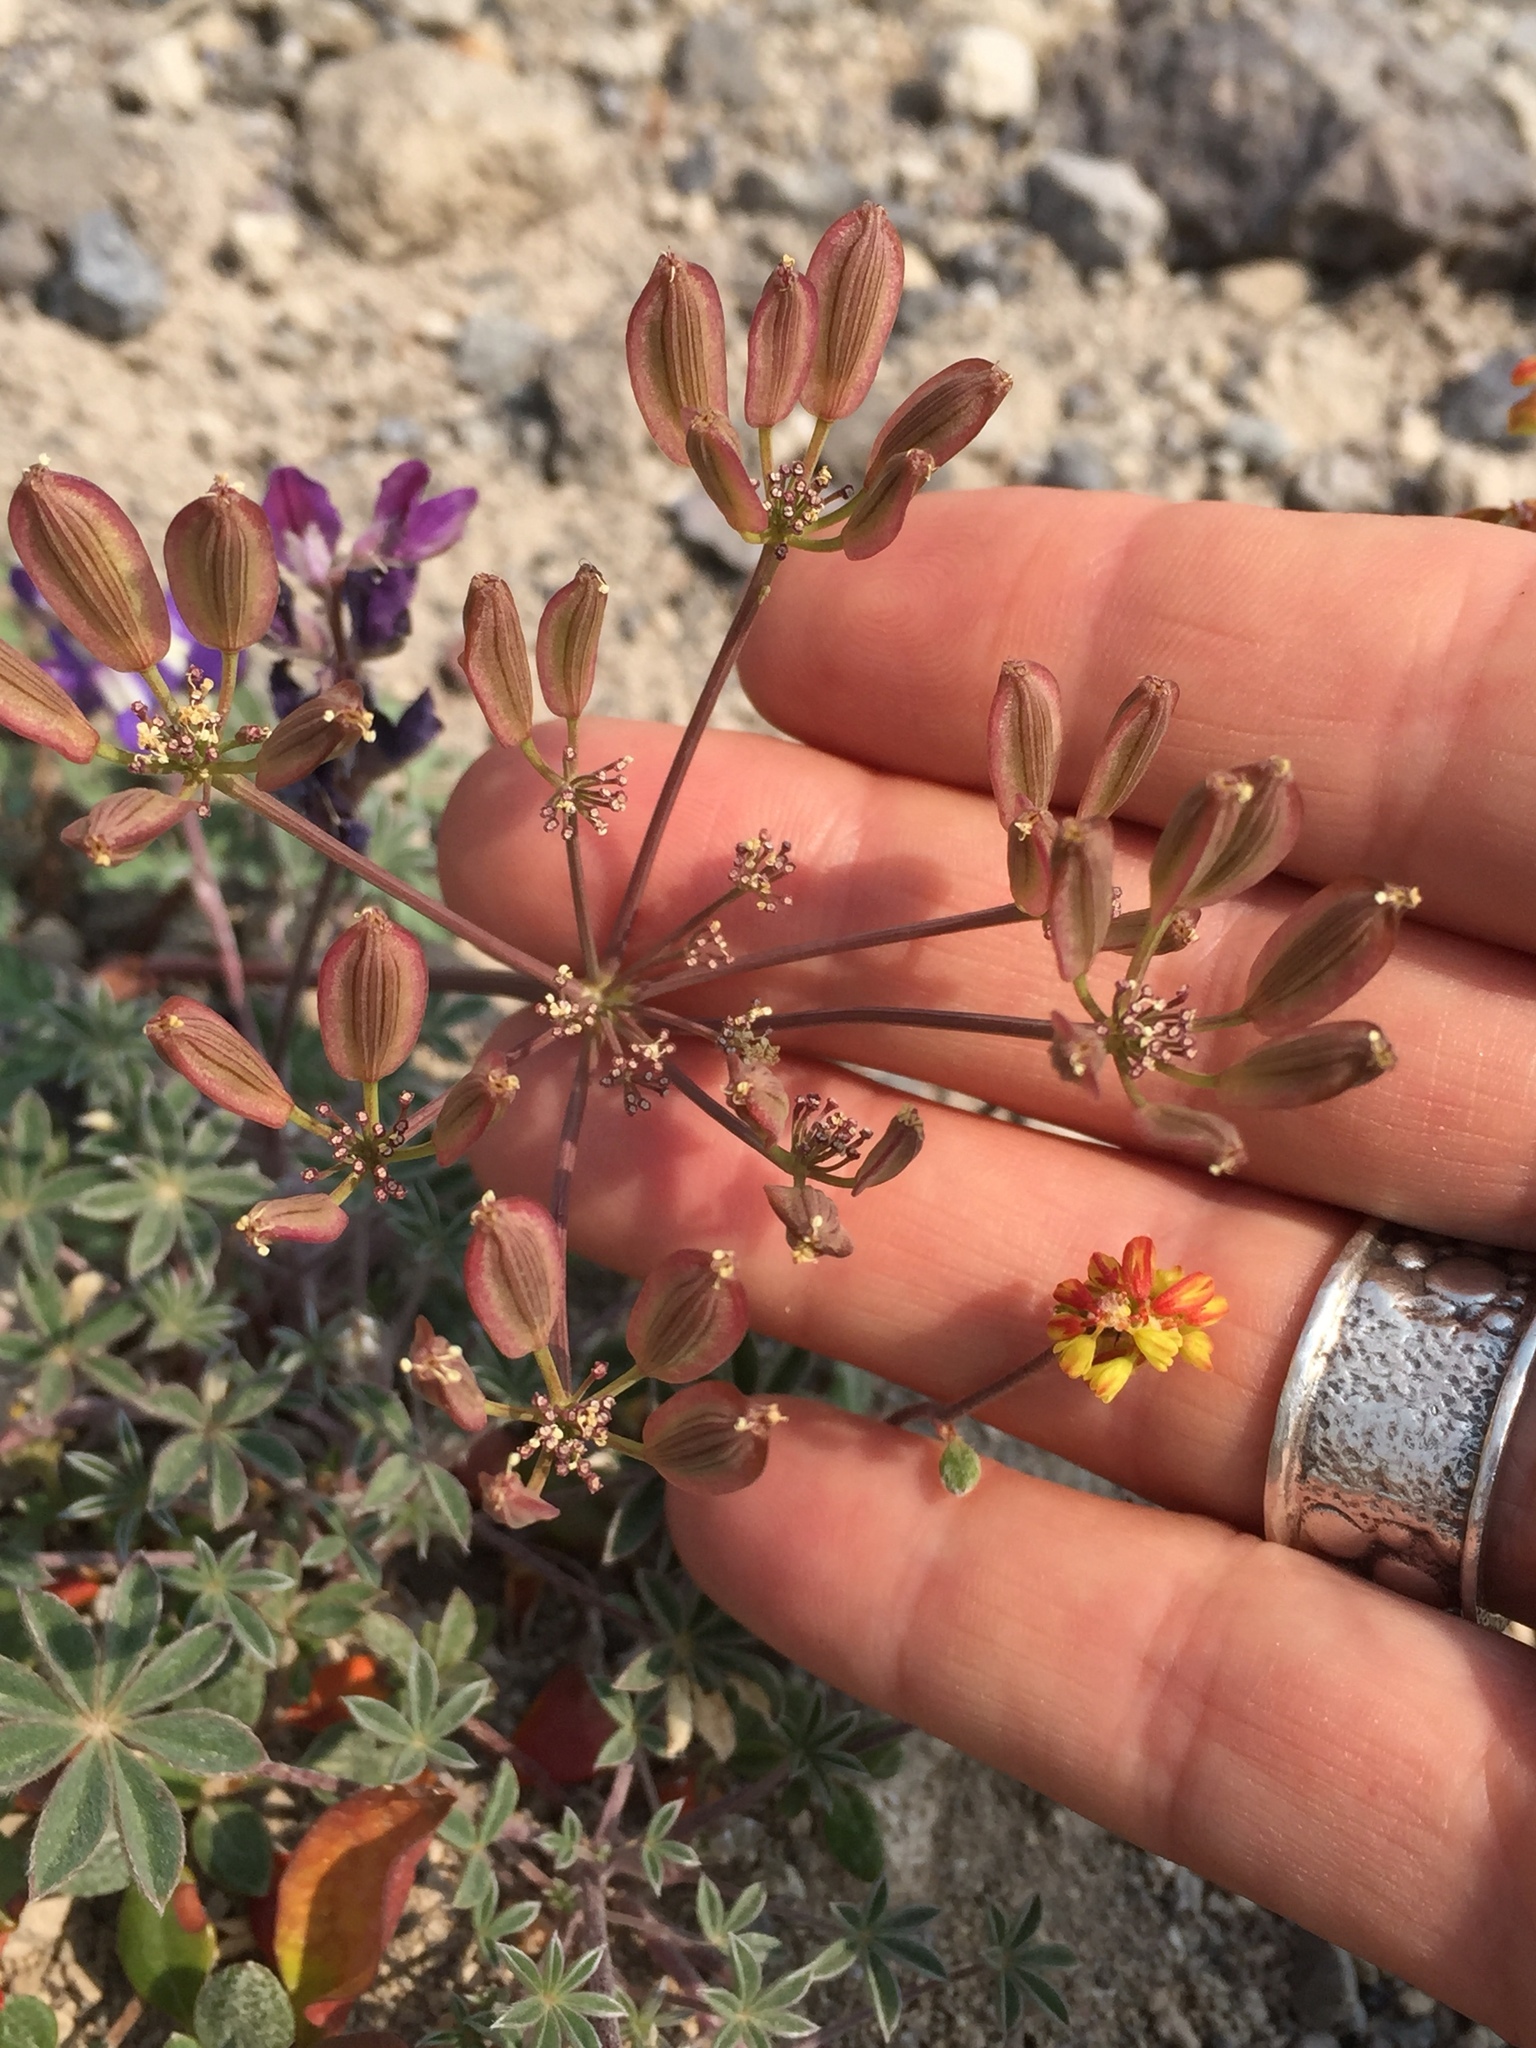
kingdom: Plantae
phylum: Tracheophyta
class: Magnoliopsida
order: Apiales
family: Apiaceae
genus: Lomatium
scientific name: Lomatium martindalei
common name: Cascade desert-parsley
